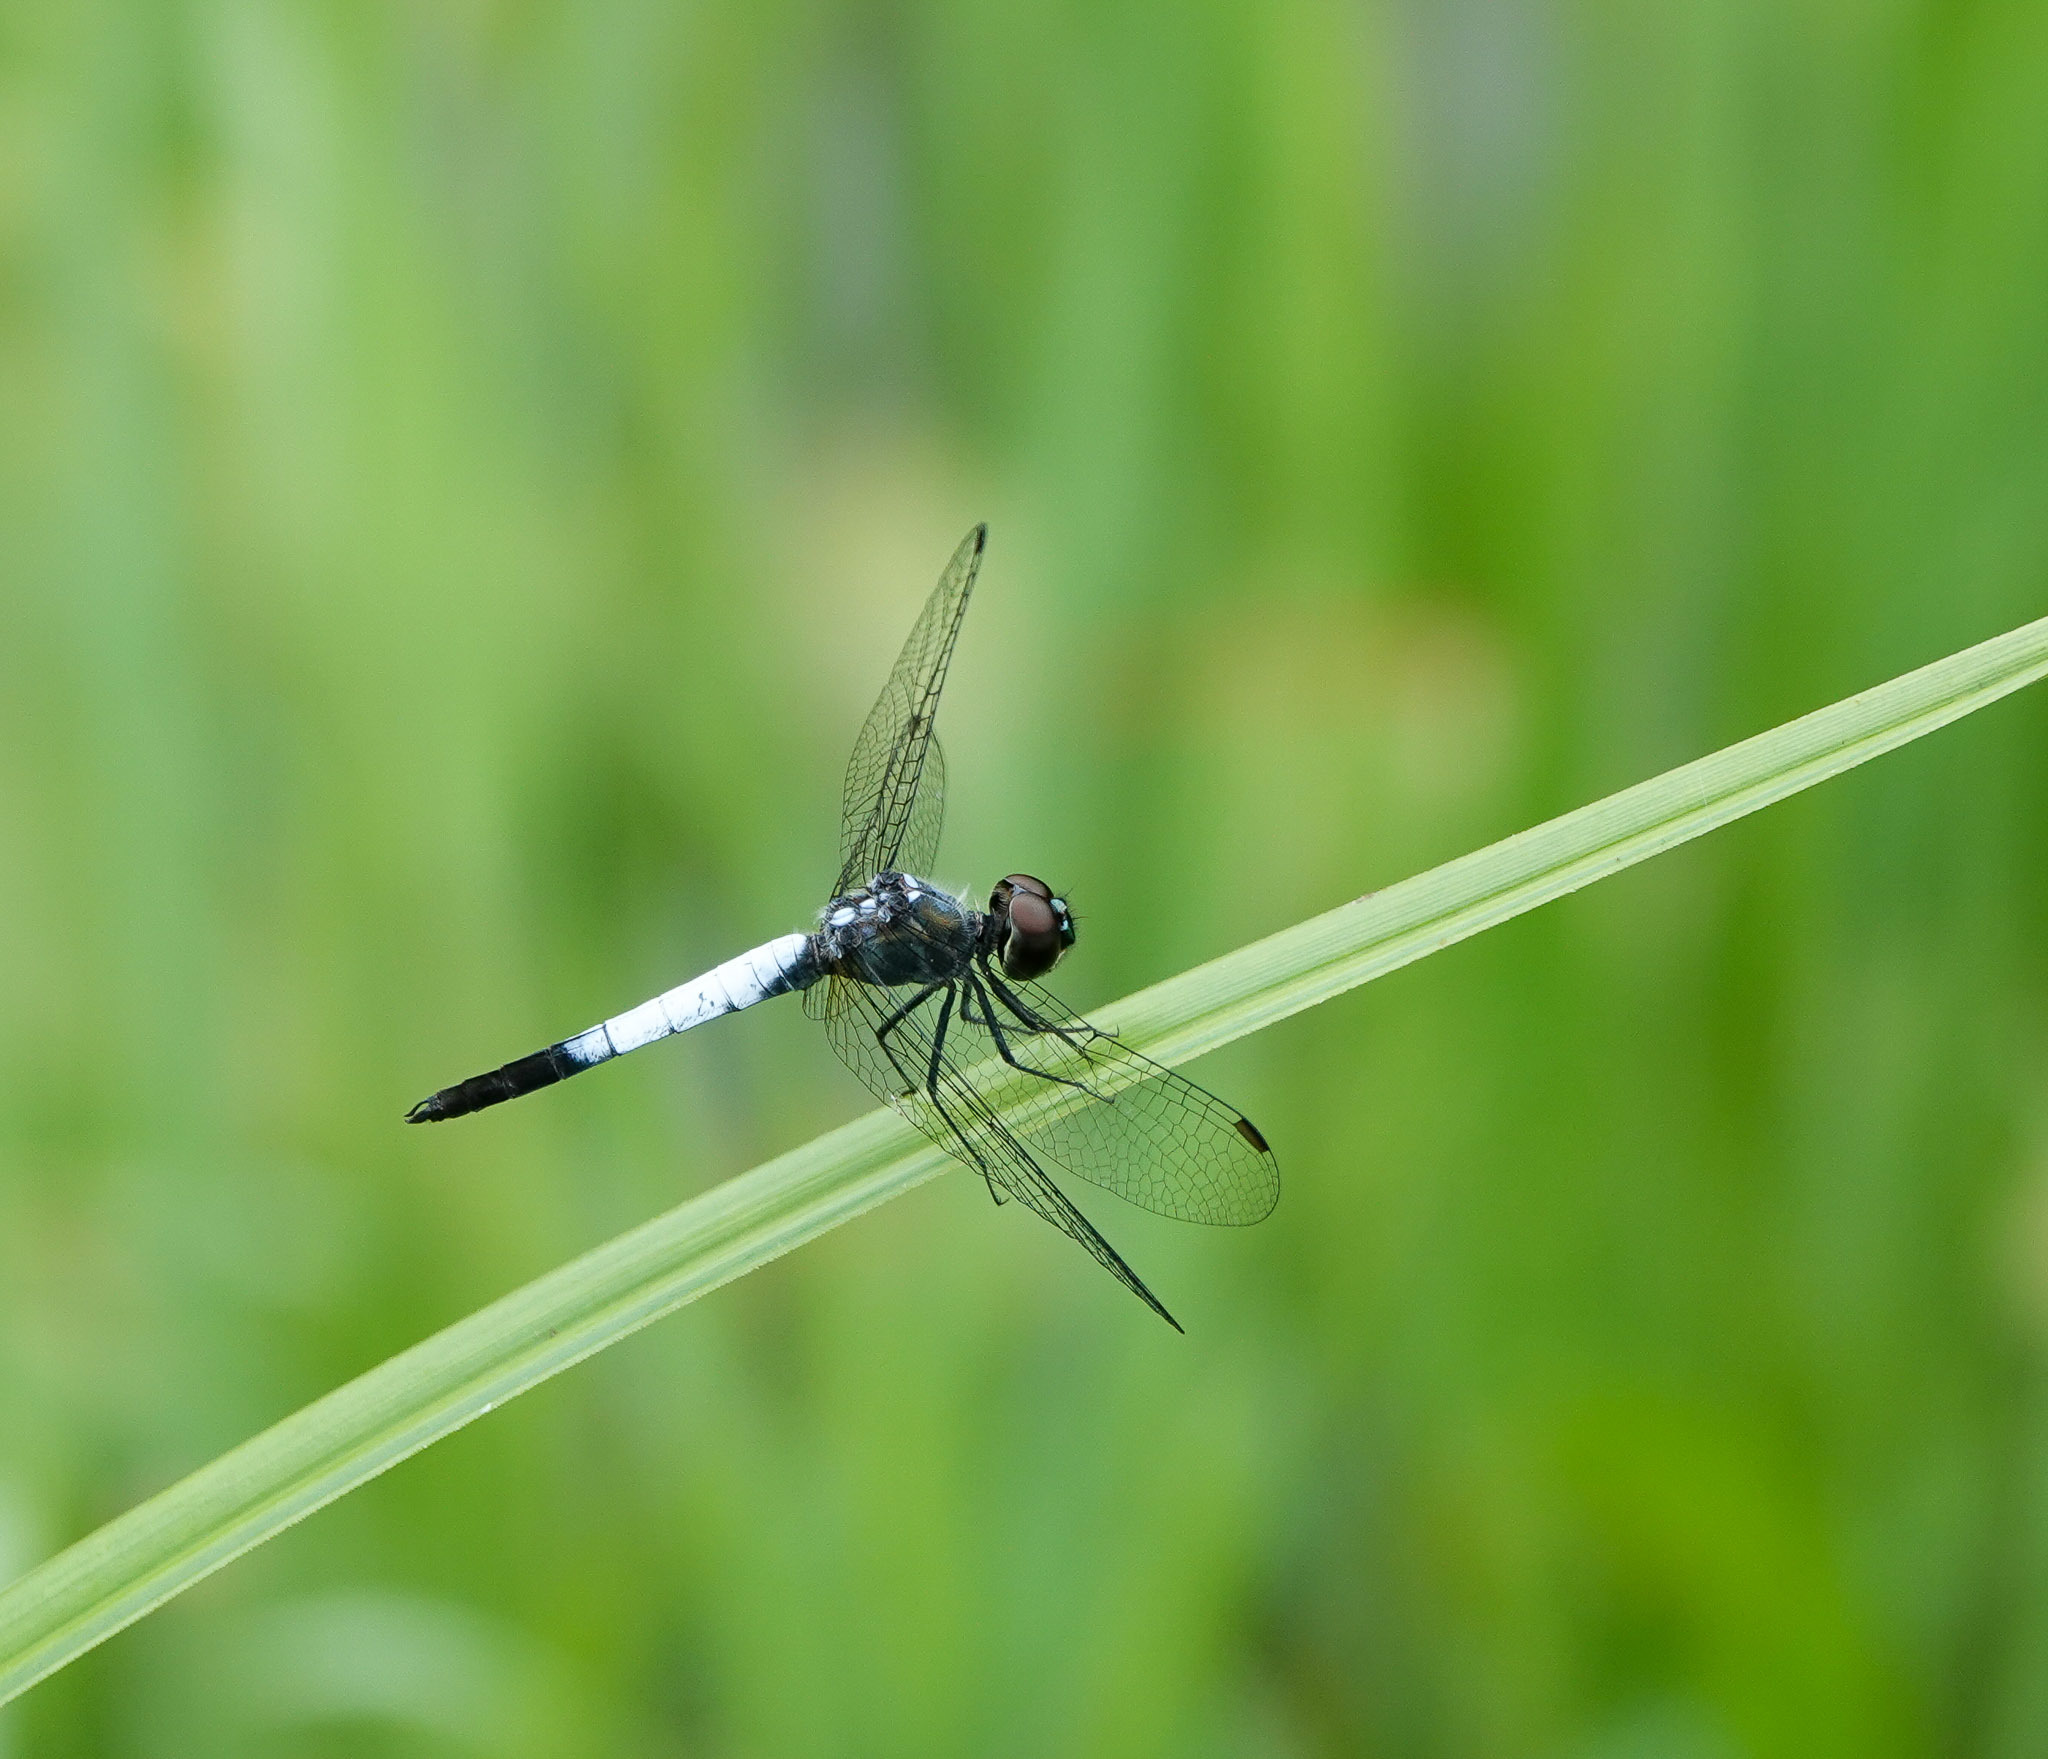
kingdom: Animalia
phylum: Arthropoda
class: Insecta
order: Odonata
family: Libellulidae
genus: Brachydiplax
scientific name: Brachydiplax farinosa
